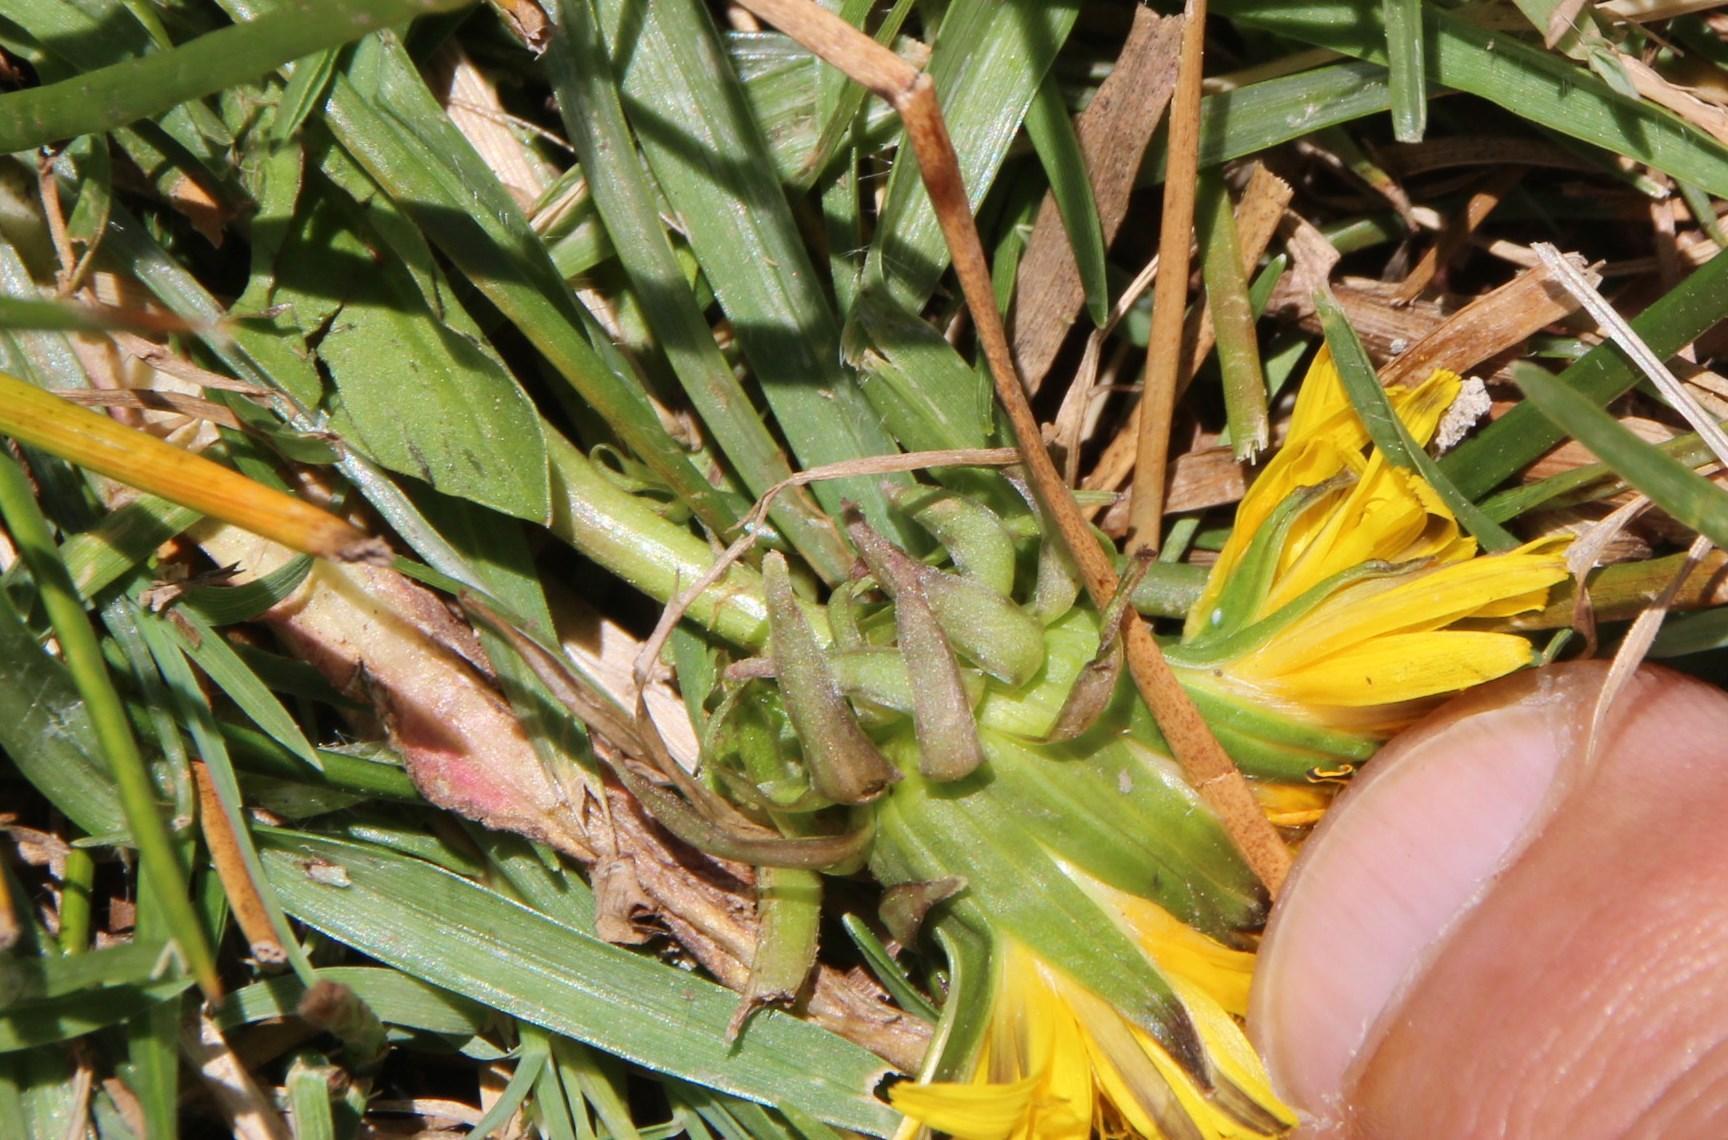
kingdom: Plantae
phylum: Tracheophyta
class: Magnoliopsida
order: Asterales
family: Asteraceae
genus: Taraxacum
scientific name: Taraxacum officinale
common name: Common dandelion
